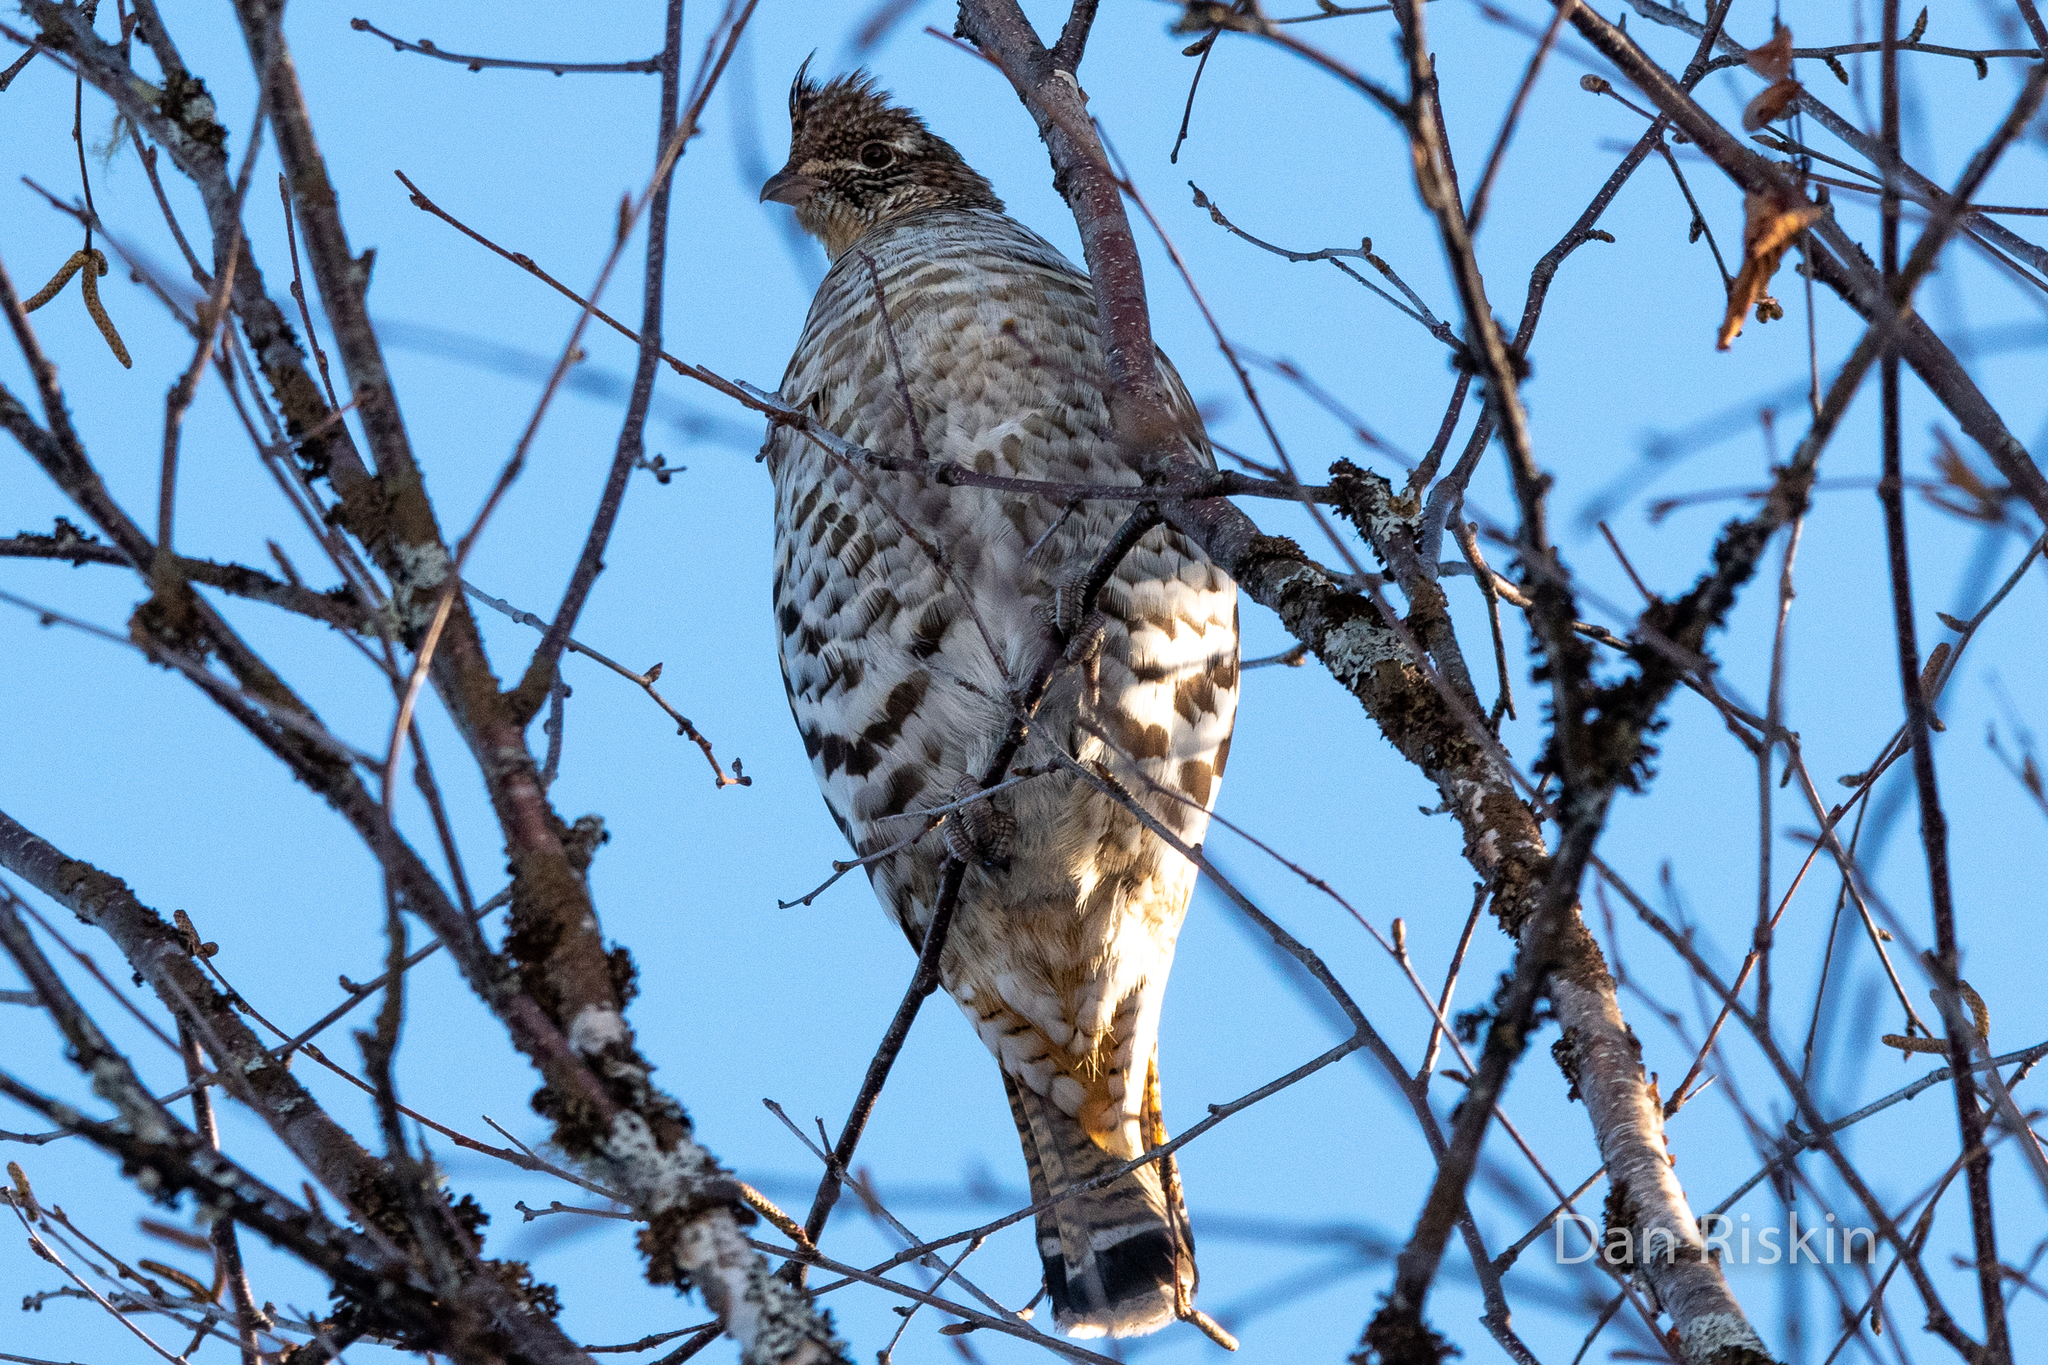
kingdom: Animalia
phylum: Chordata
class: Aves
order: Galliformes
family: Phasianidae
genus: Bonasa
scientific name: Bonasa umbellus
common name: Ruffed grouse
